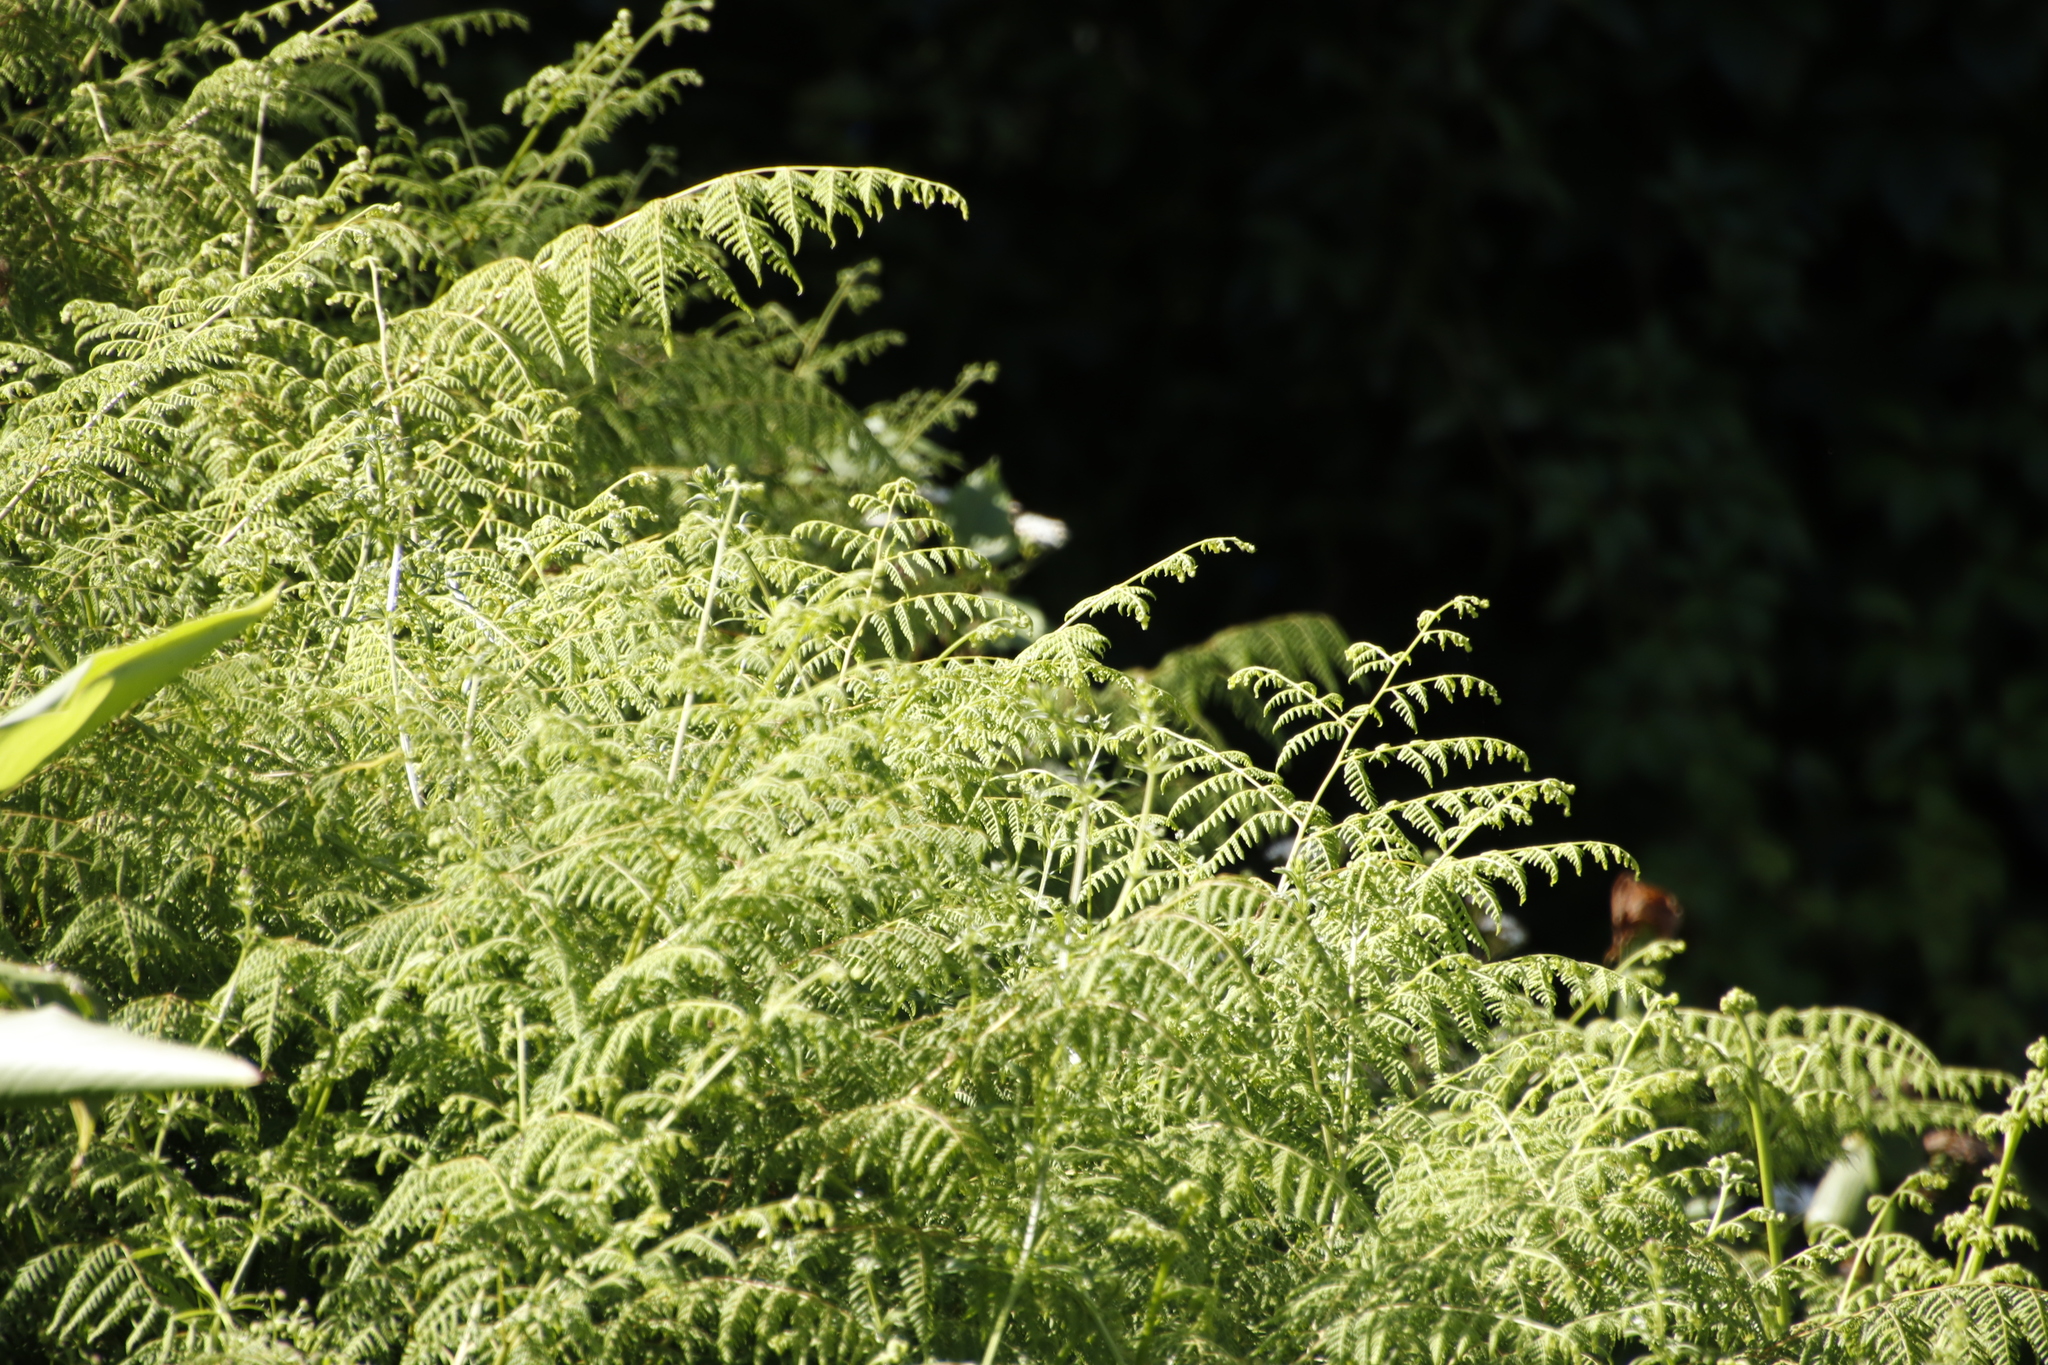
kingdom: Plantae
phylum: Tracheophyta
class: Polypodiopsida
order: Polypodiales
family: Dennstaedtiaceae
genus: Hypolepis
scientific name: Hypolepis sparsisora
